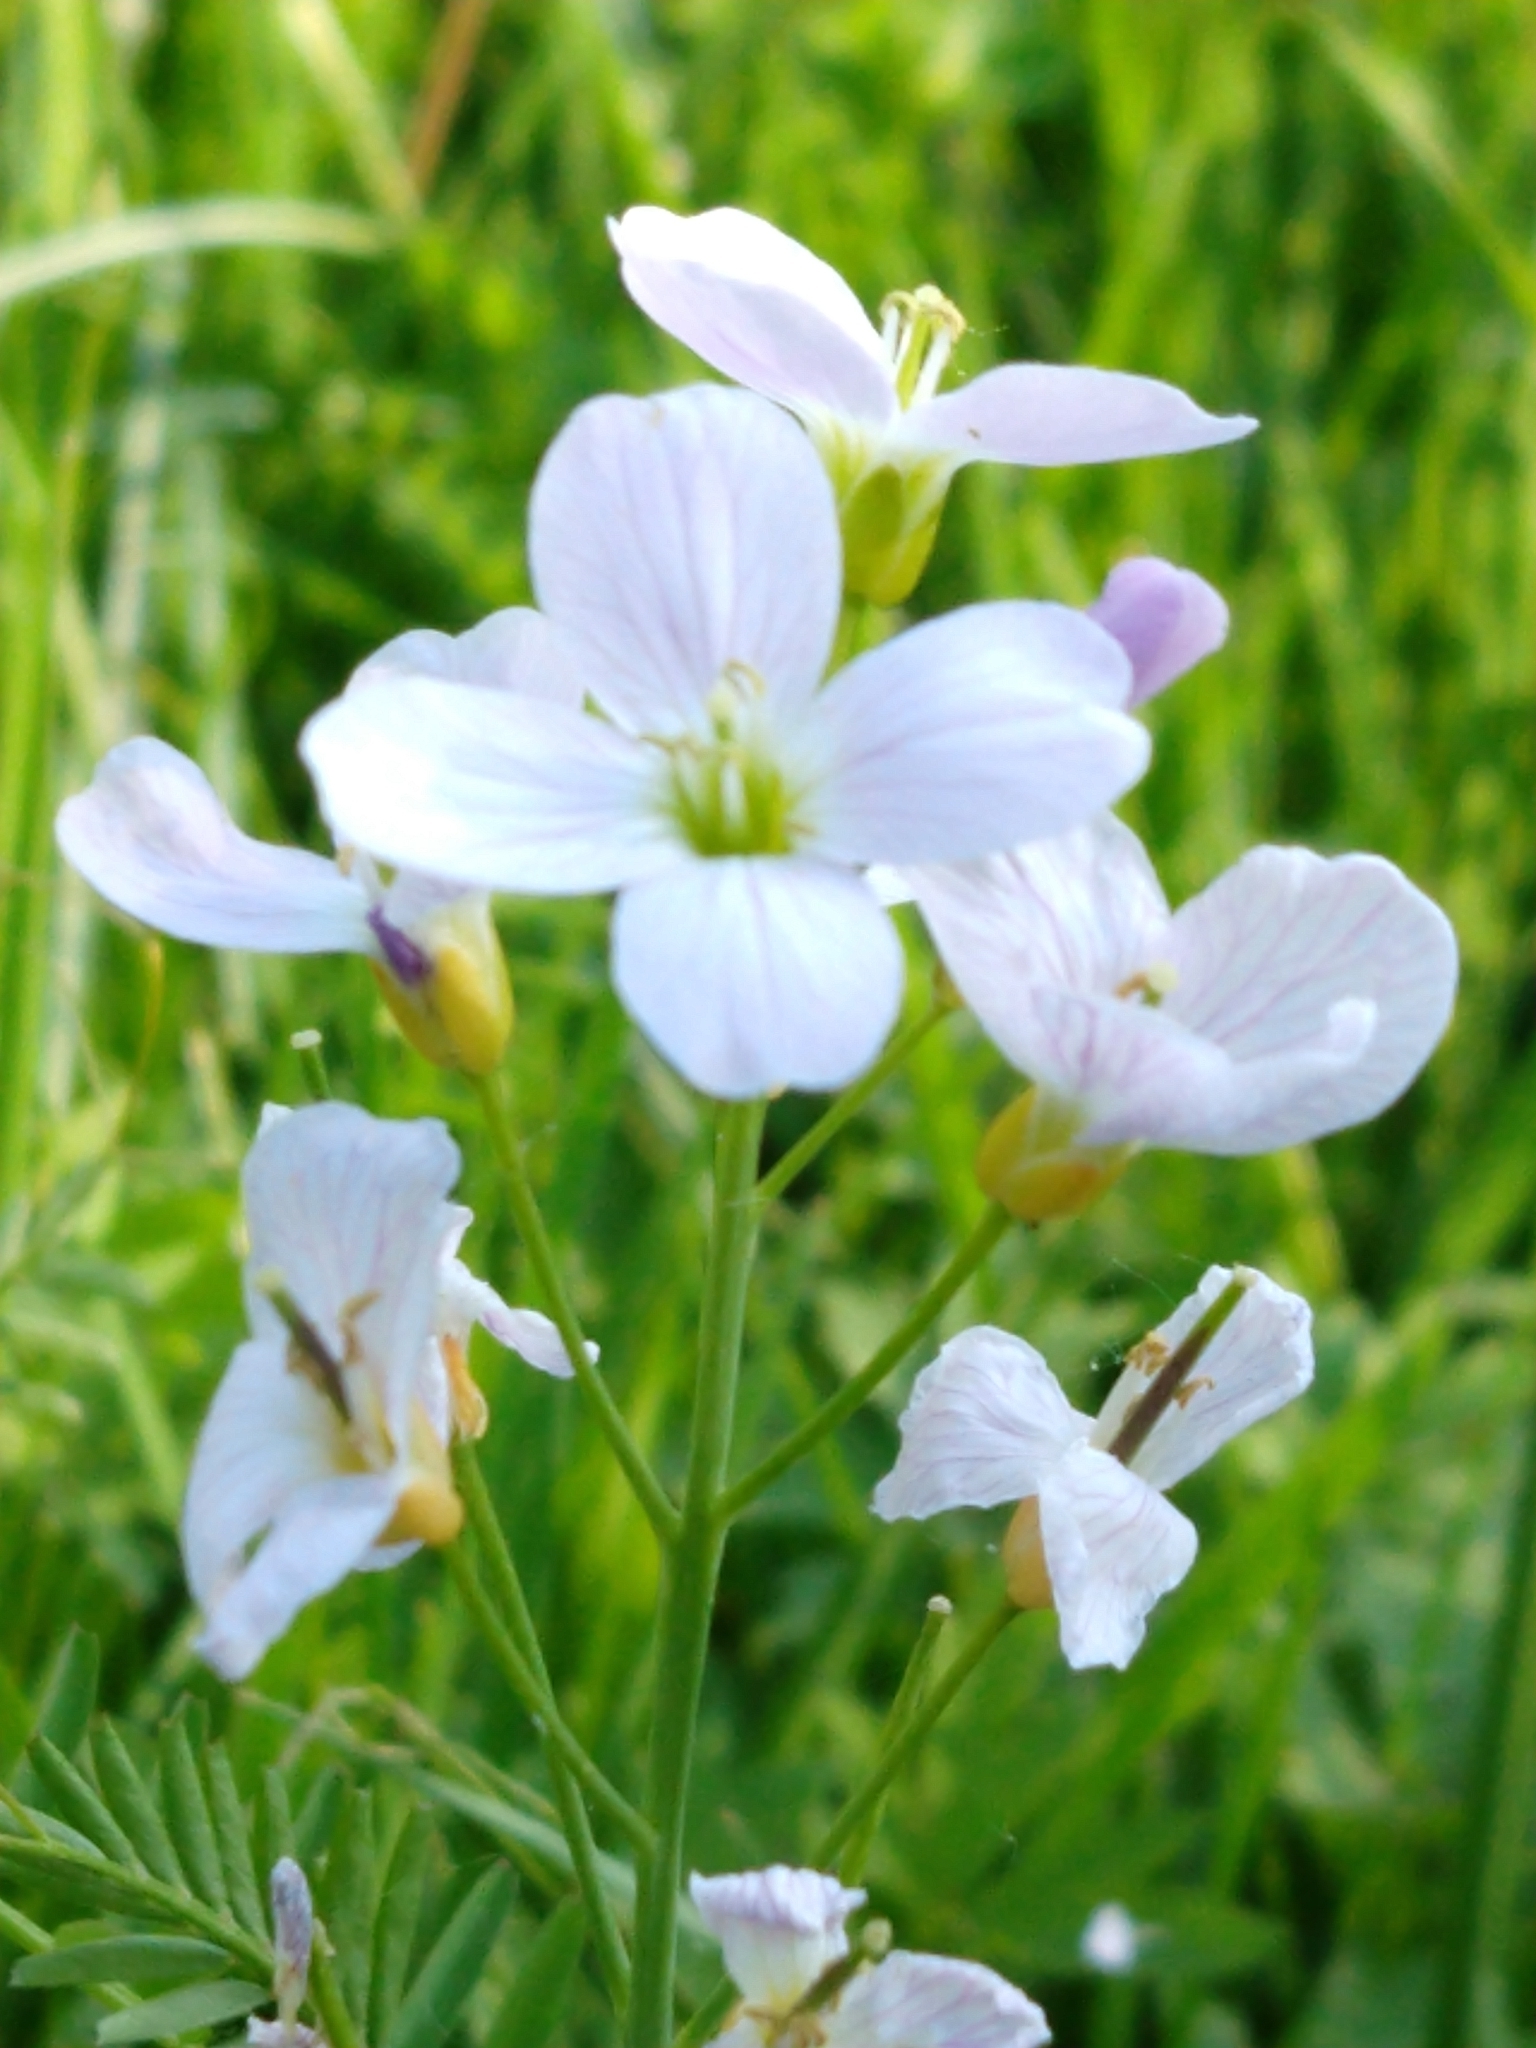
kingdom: Plantae
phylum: Tracheophyta
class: Magnoliopsida
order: Brassicales
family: Brassicaceae
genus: Cardamine
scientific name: Cardamine pratensis
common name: Cuckoo flower
